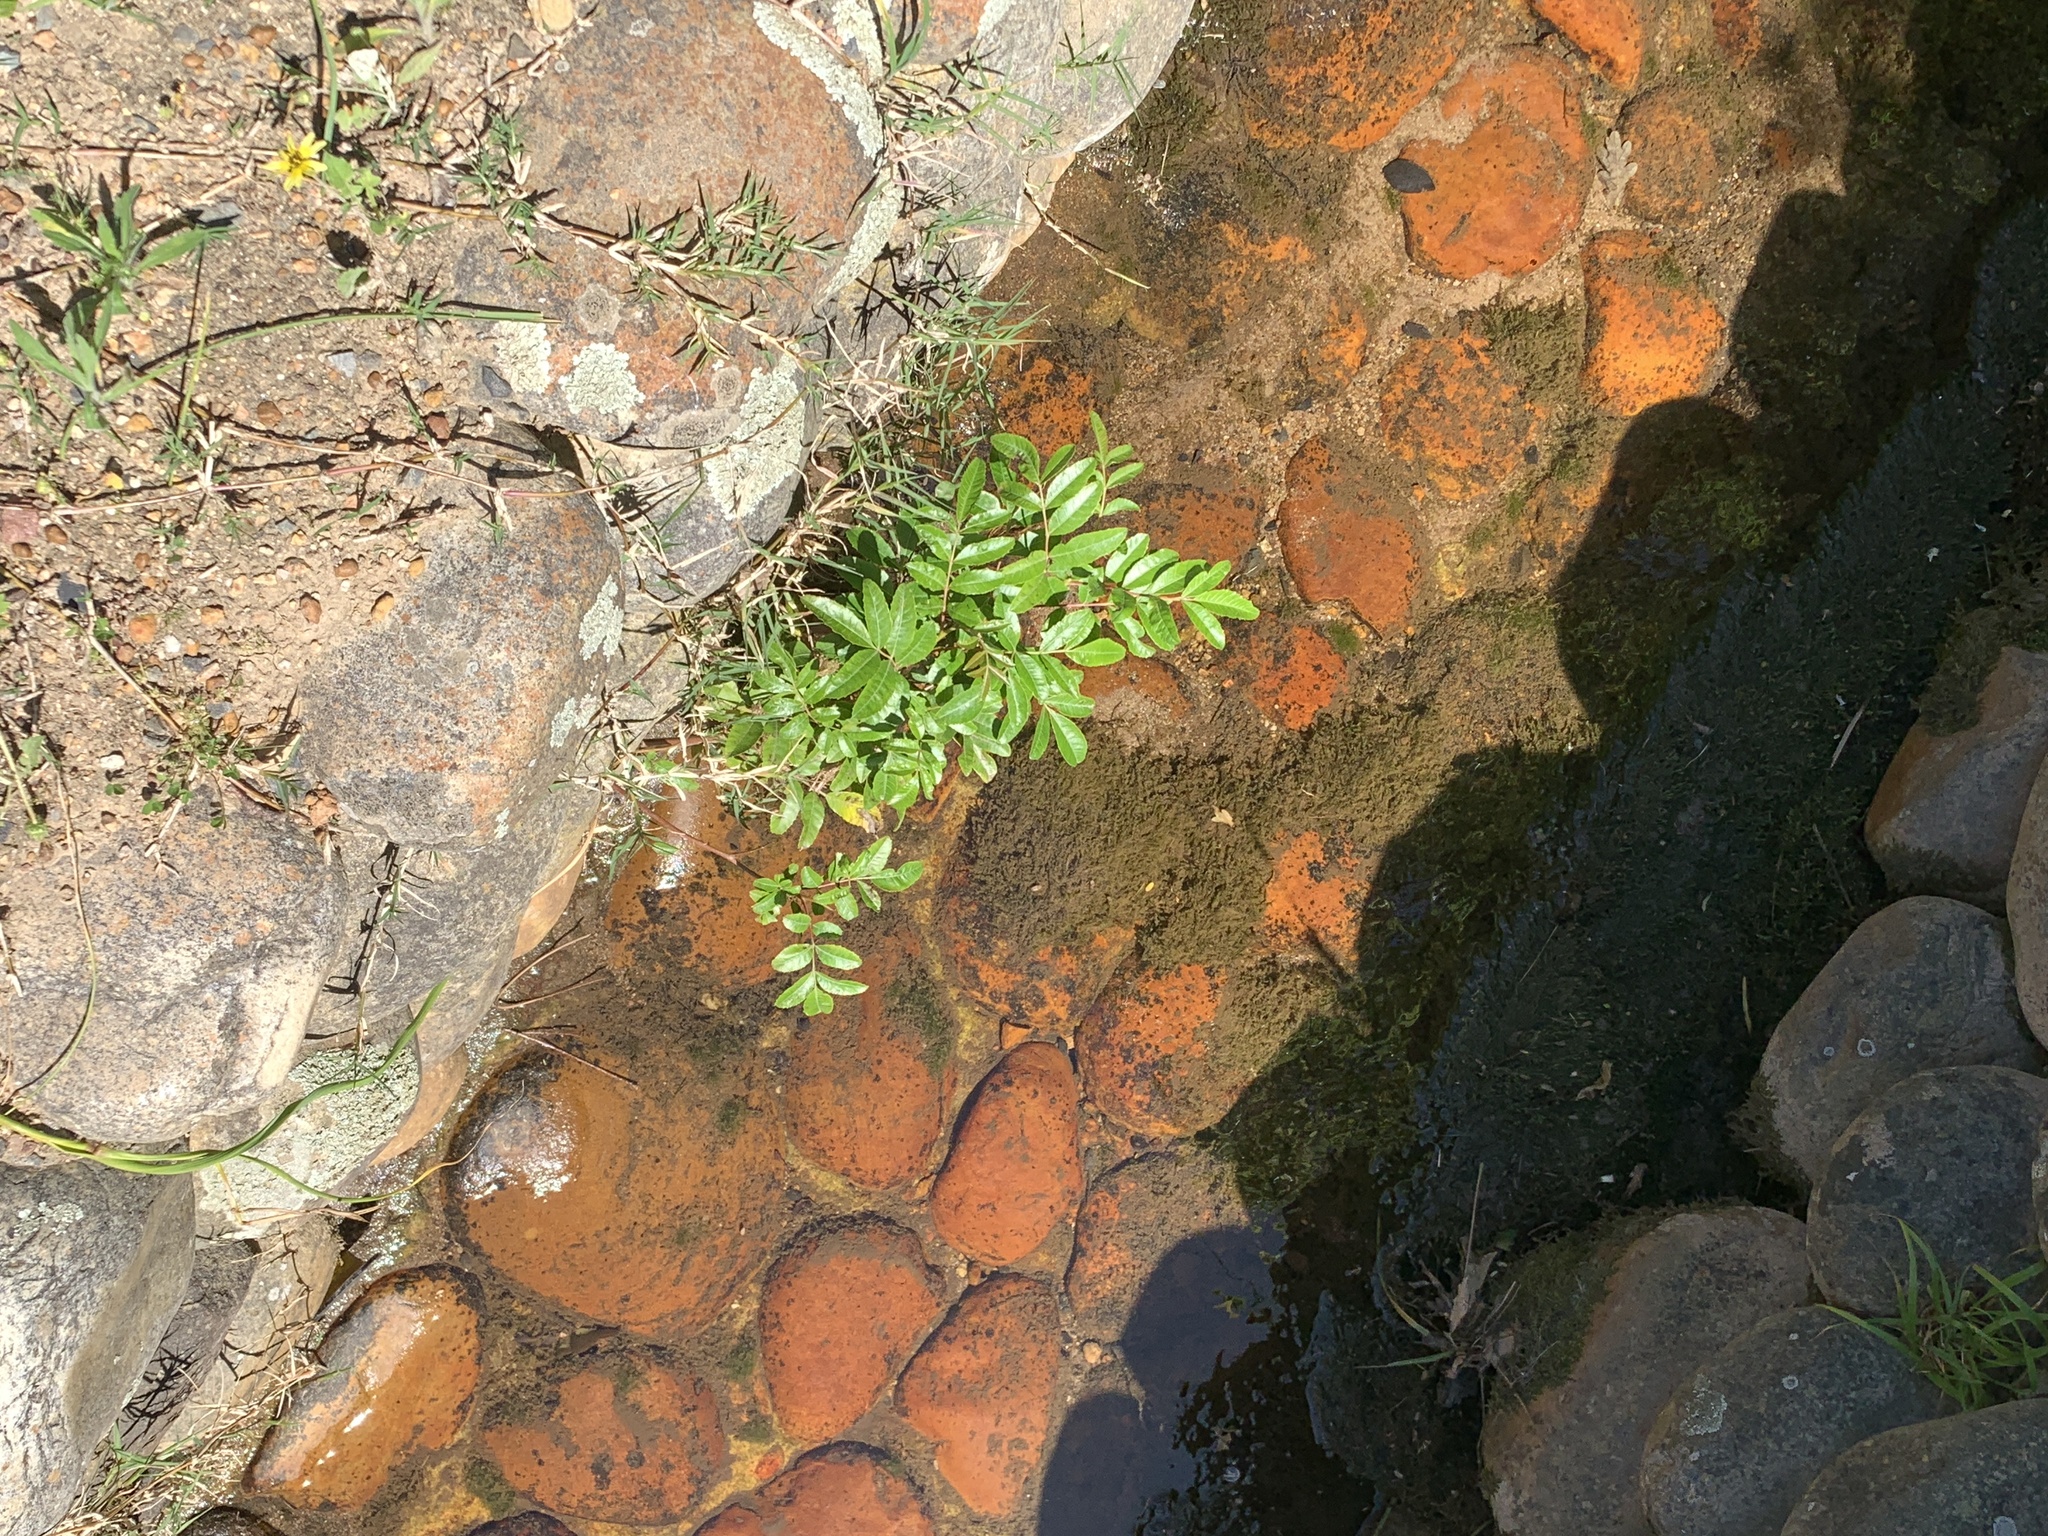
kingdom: Plantae
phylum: Tracheophyta
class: Magnoliopsida
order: Sapindales
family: Anacardiaceae
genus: Schinus
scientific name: Schinus terebinthifolia
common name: Brazilian peppertree
